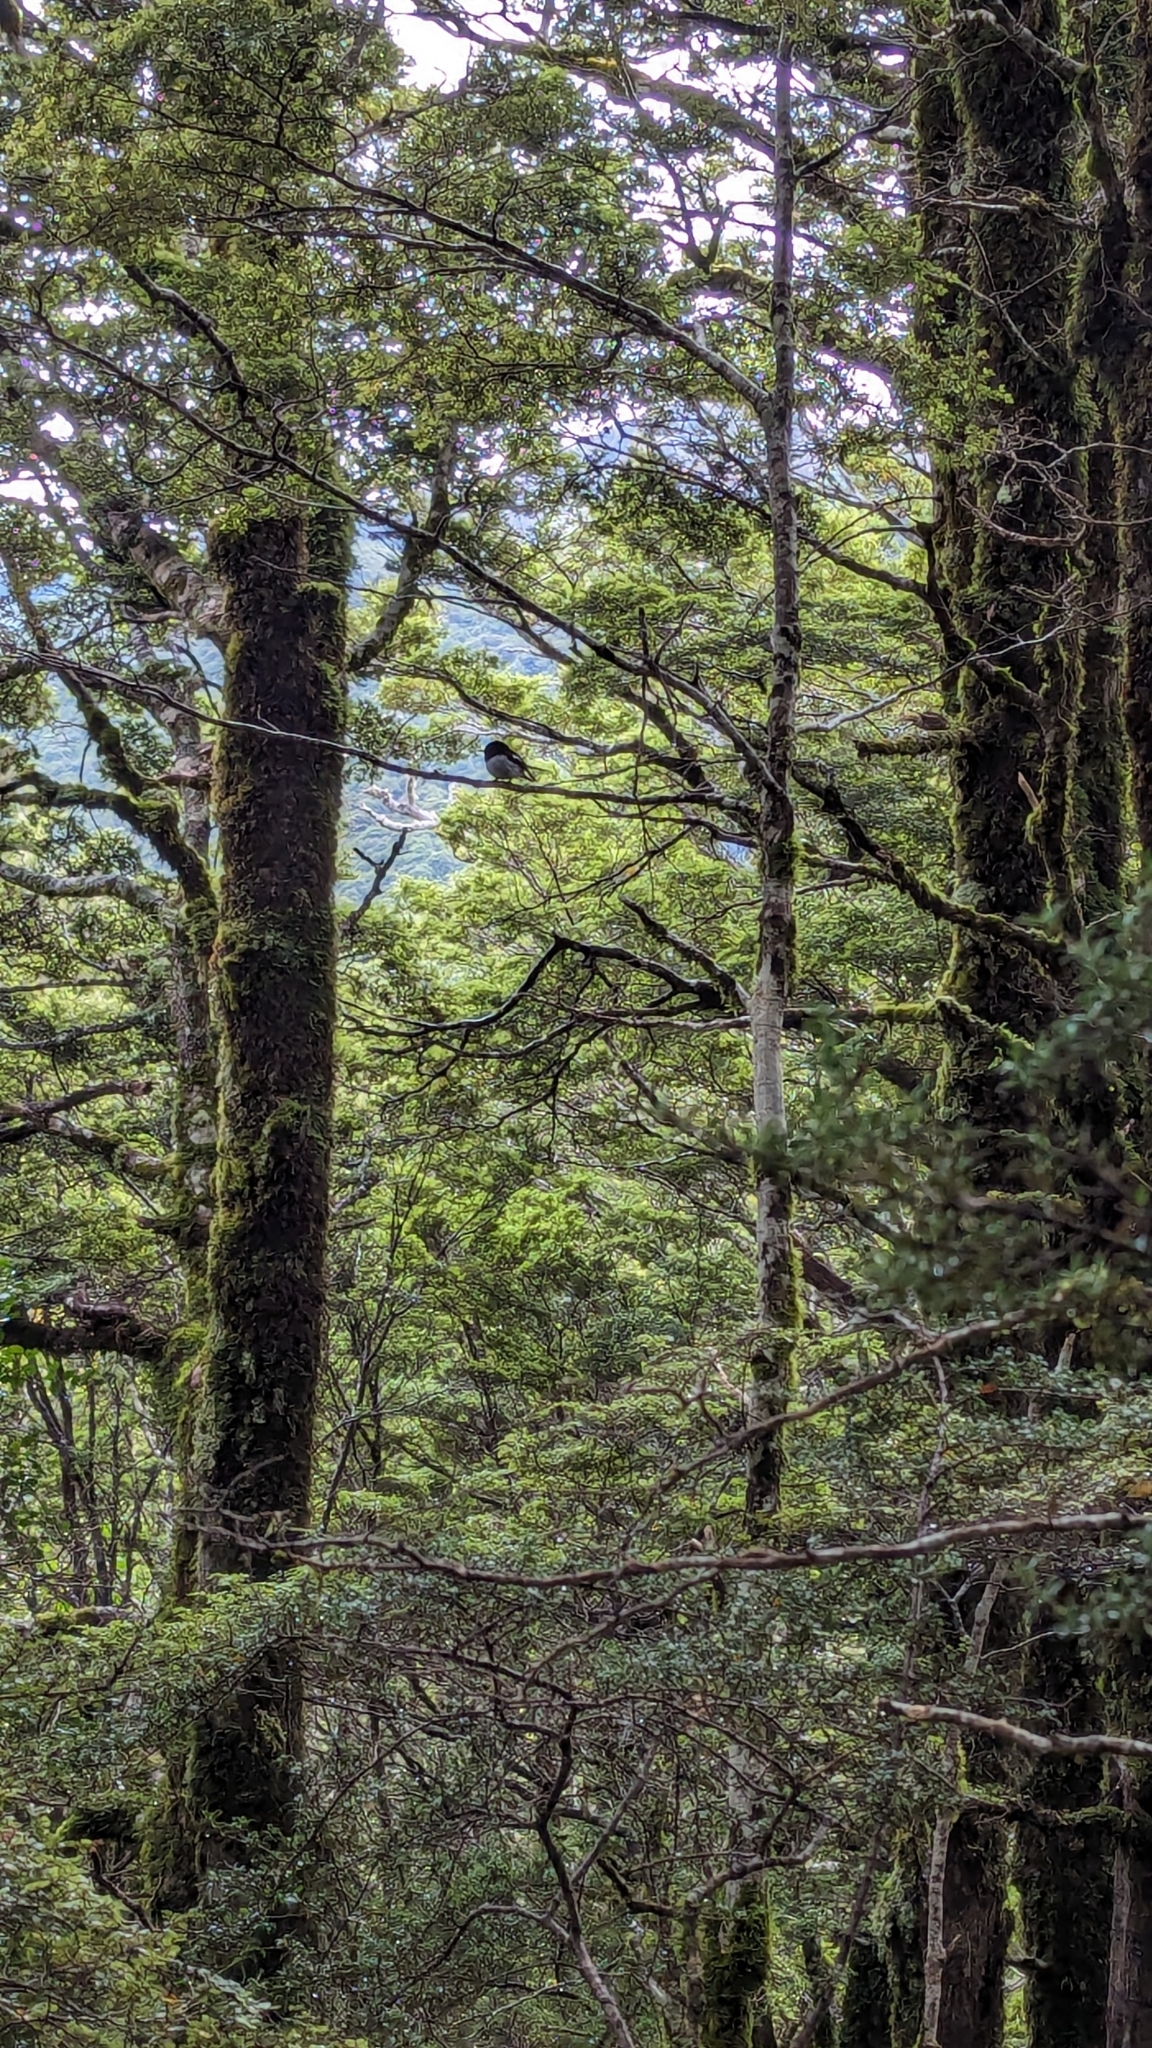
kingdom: Animalia
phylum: Chordata
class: Aves
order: Passeriformes
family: Petroicidae
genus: Petroica
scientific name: Petroica macrocephala
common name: Tomtit
